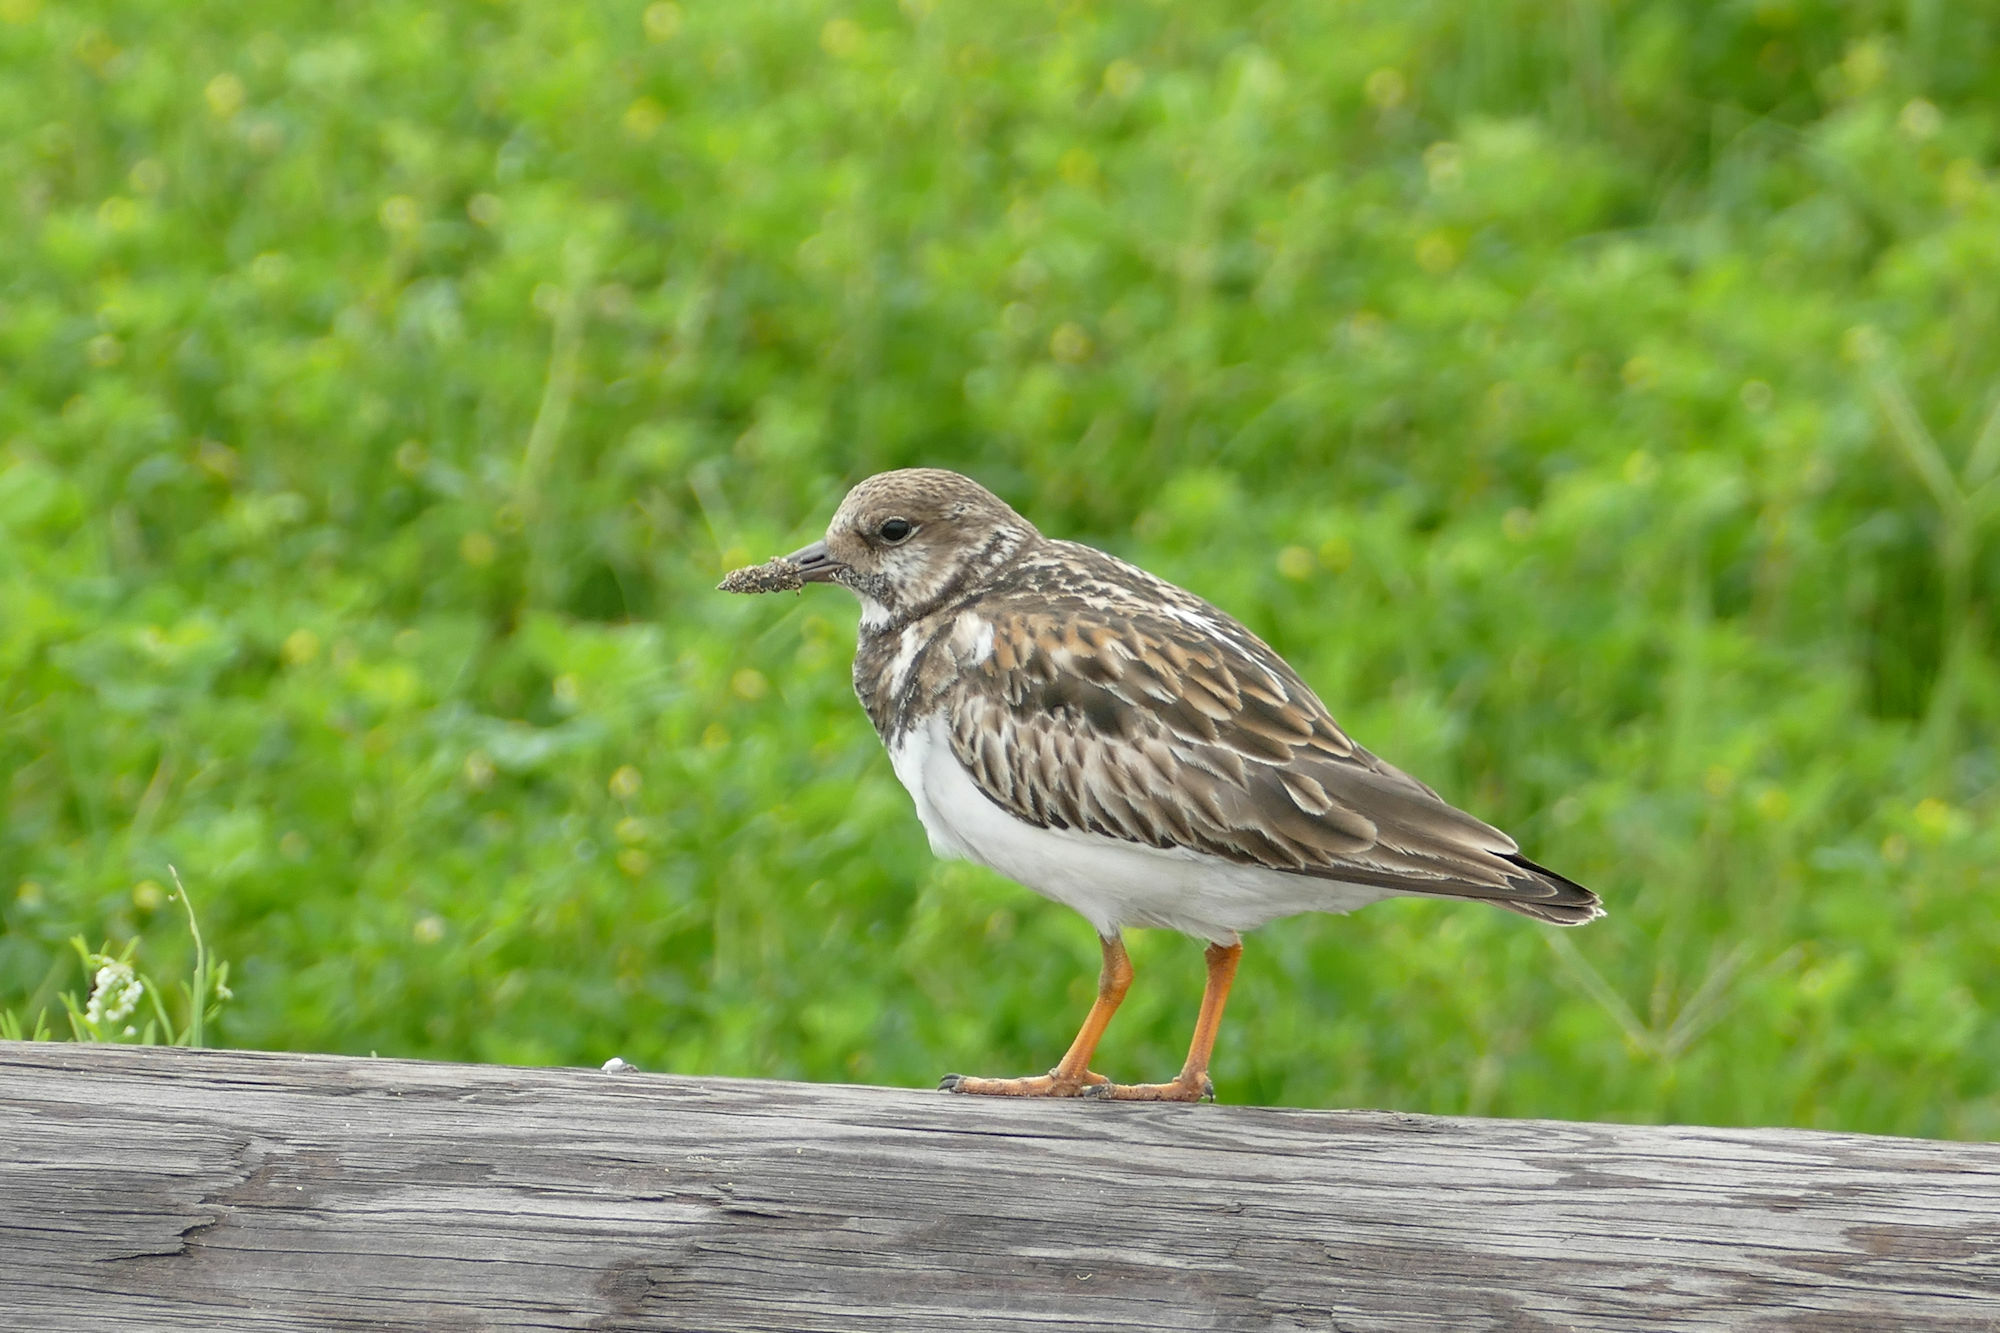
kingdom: Animalia
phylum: Chordata
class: Aves
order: Charadriiformes
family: Scolopacidae
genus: Arenaria
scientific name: Arenaria interpres
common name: Ruddy turnstone
